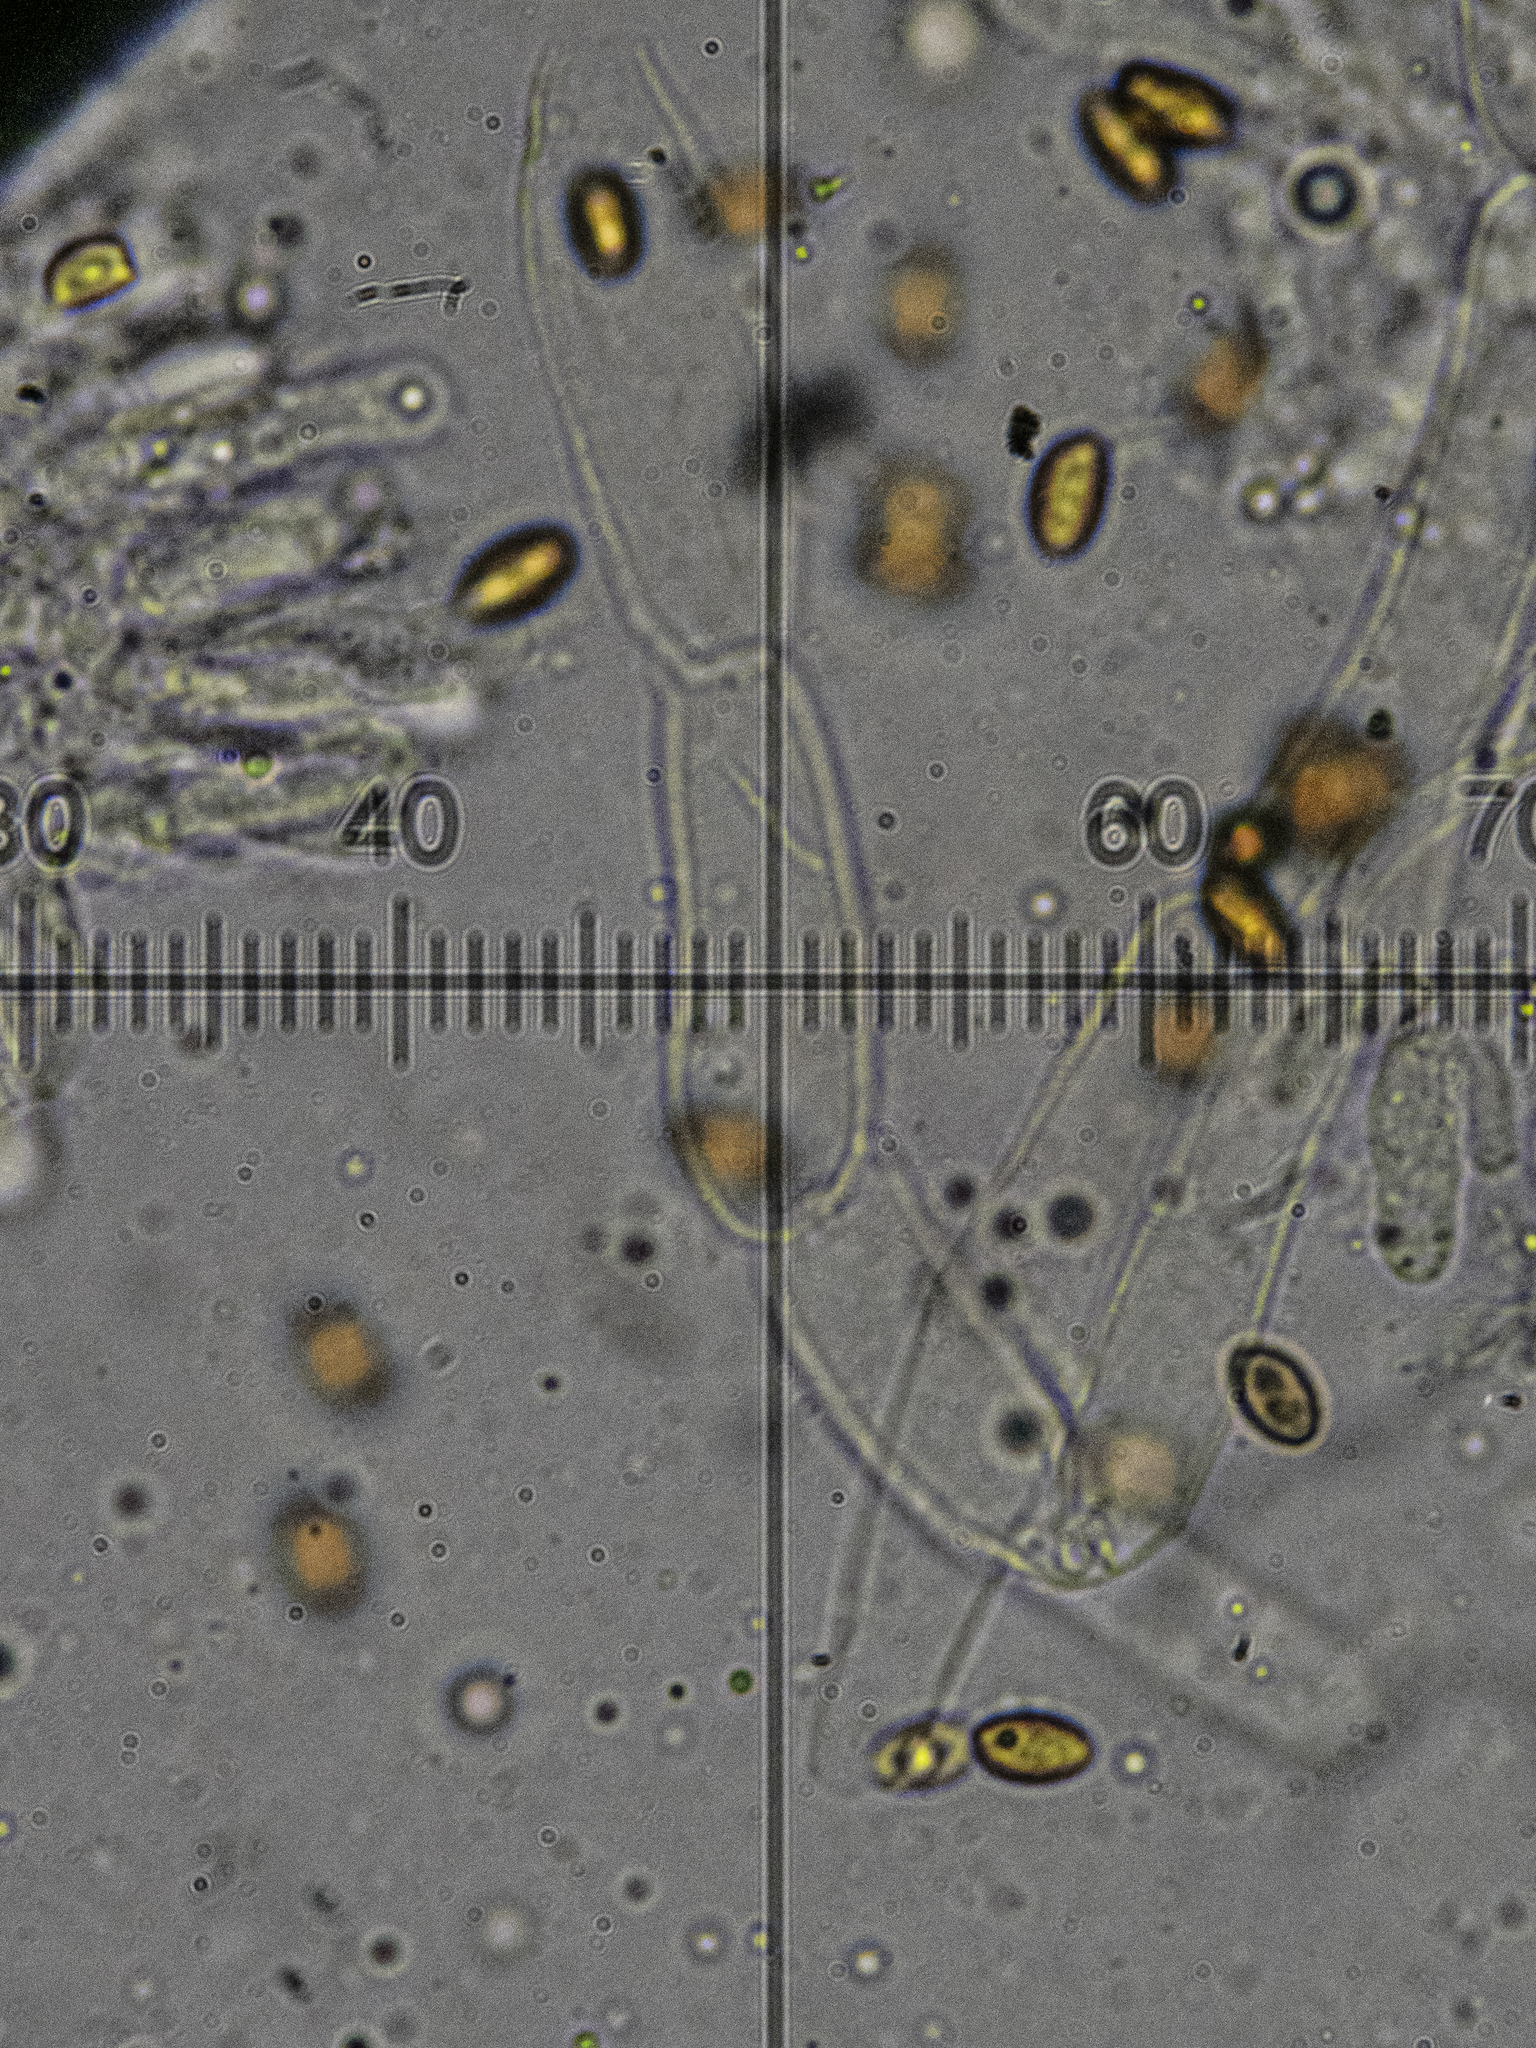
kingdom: Fungi
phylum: Basidiomycota
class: Agaricomycetes
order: Agaricales
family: Hymenogastraceae
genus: Gymnopilus
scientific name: Gymnopilus sapineus
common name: Scaly rustgill
